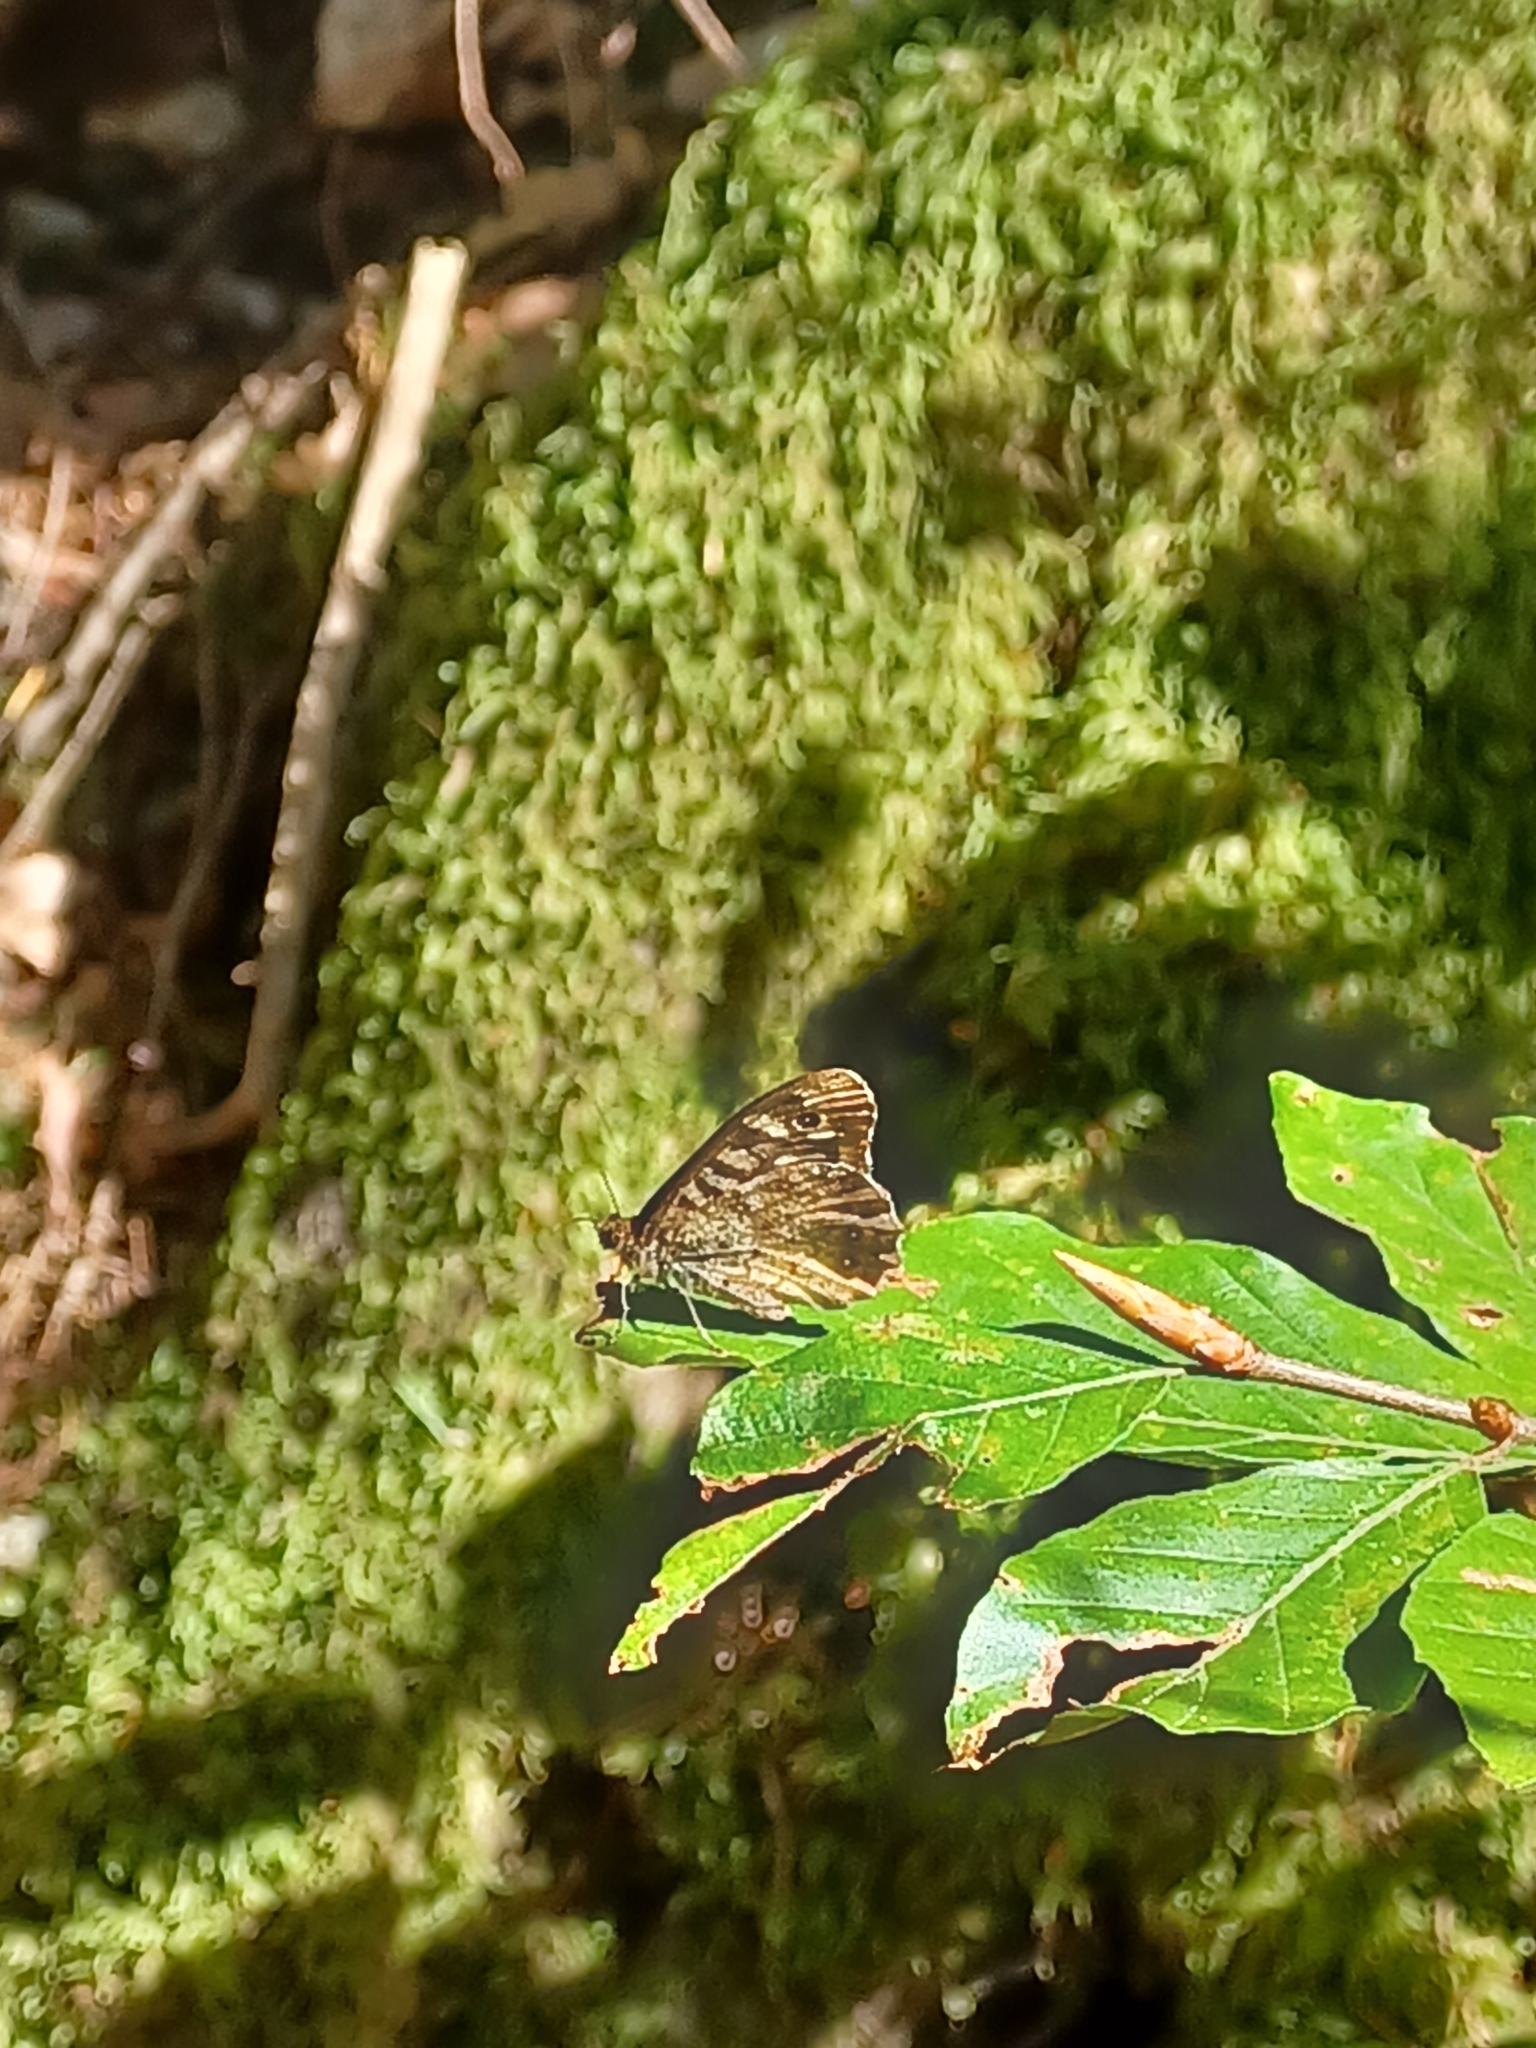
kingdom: Animalia
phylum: Arthropoda
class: Insecta
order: Lepidoptera
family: Nymphalidae
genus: Pararge
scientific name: Pararge aegeria
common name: Speckled wood
